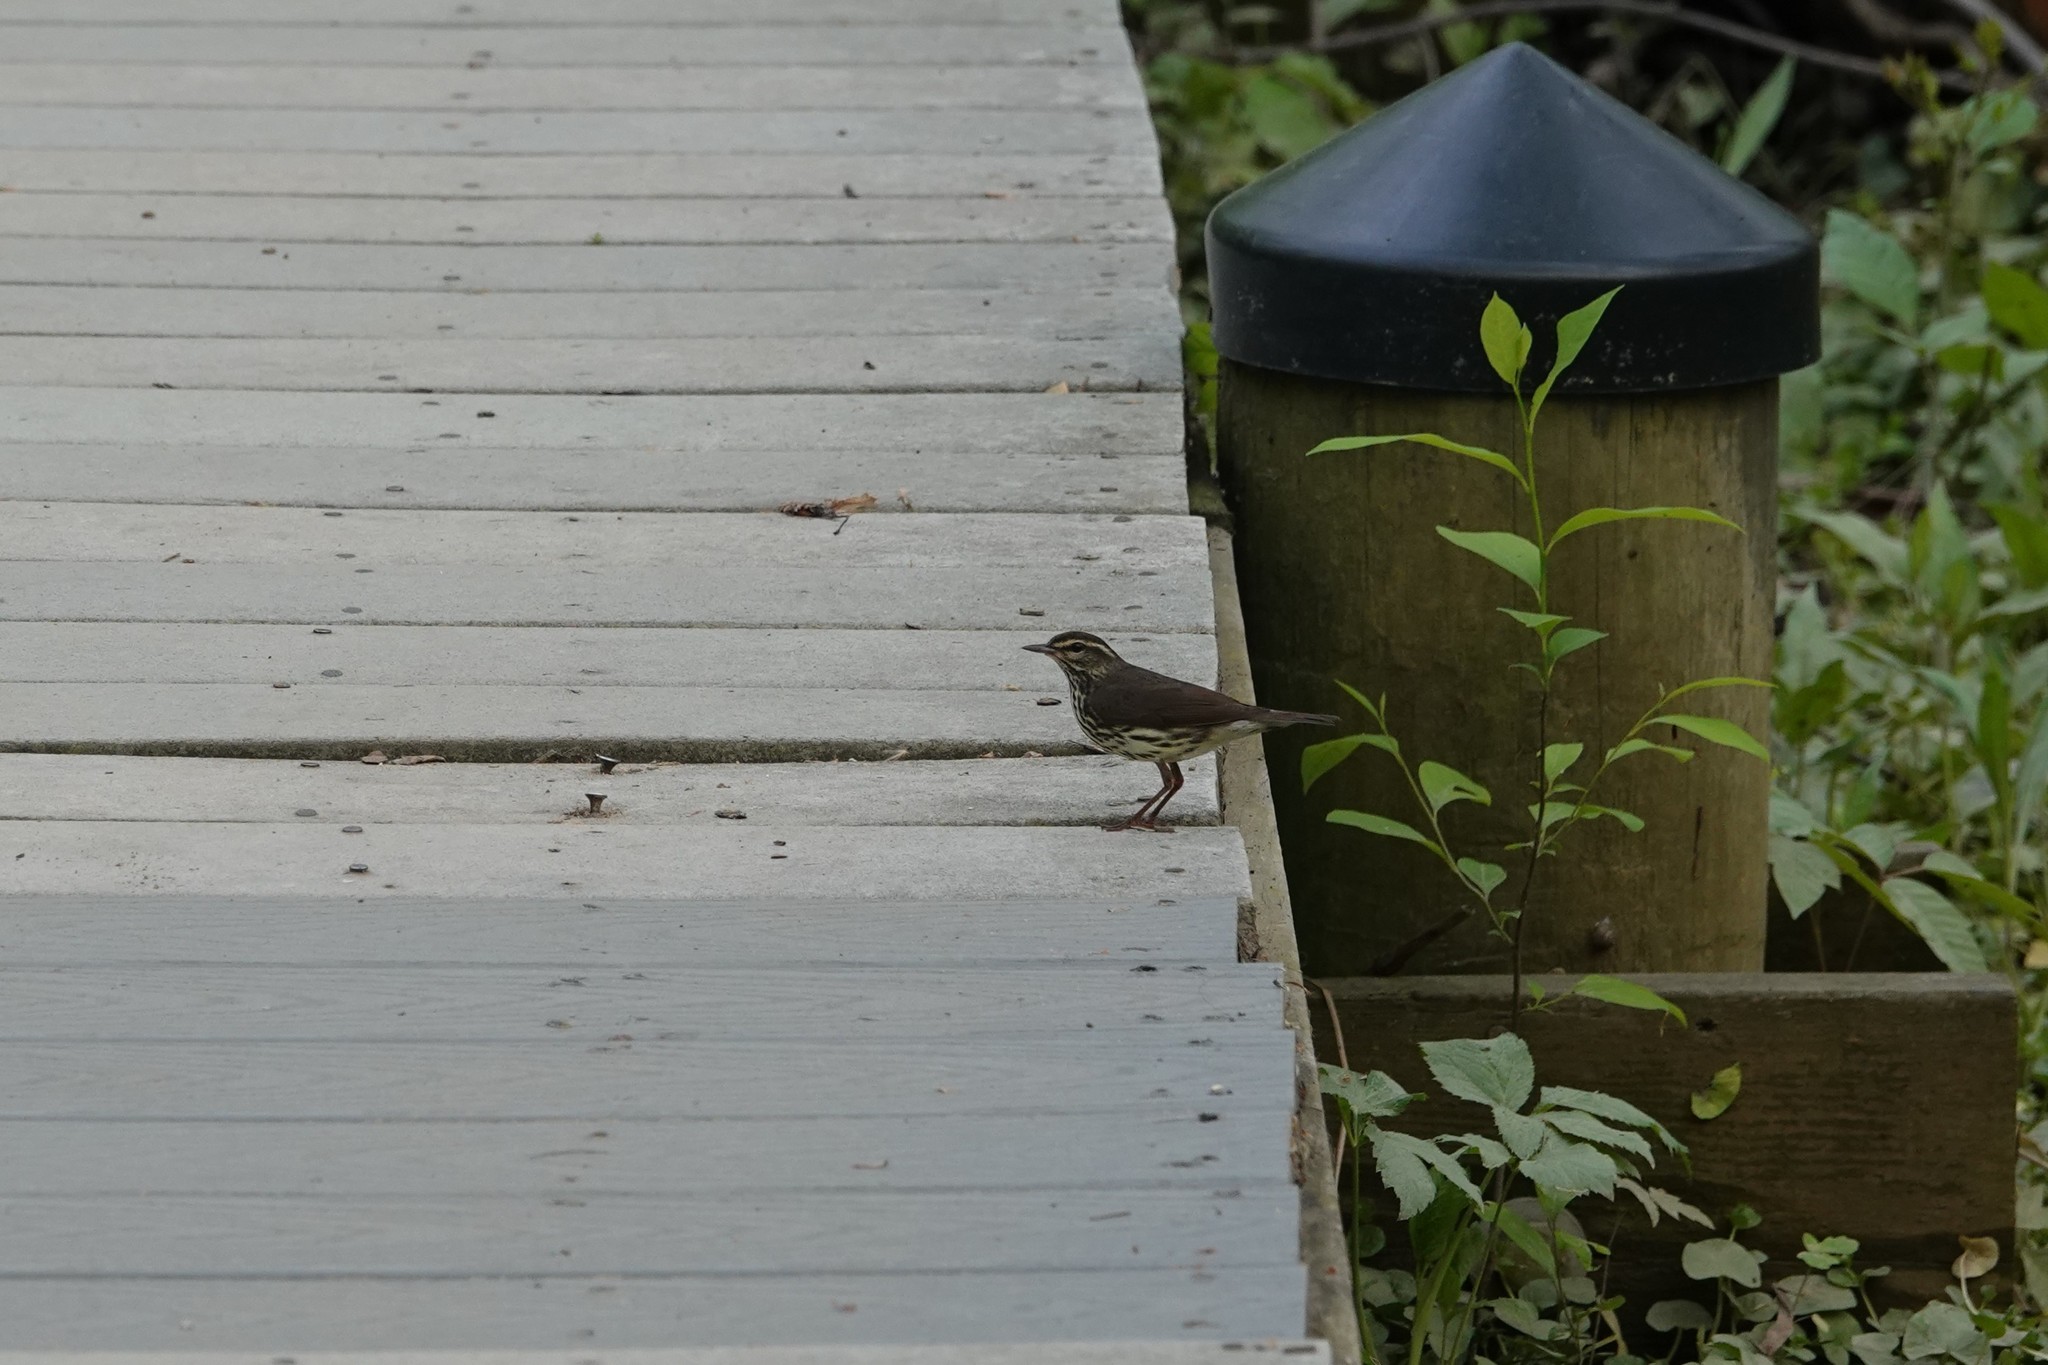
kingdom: Animalia
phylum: Chordata
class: Aves
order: Passeriformes
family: Parulidae
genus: Parkesia
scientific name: Parkesia noveboracensis
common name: Northern waterthrush
